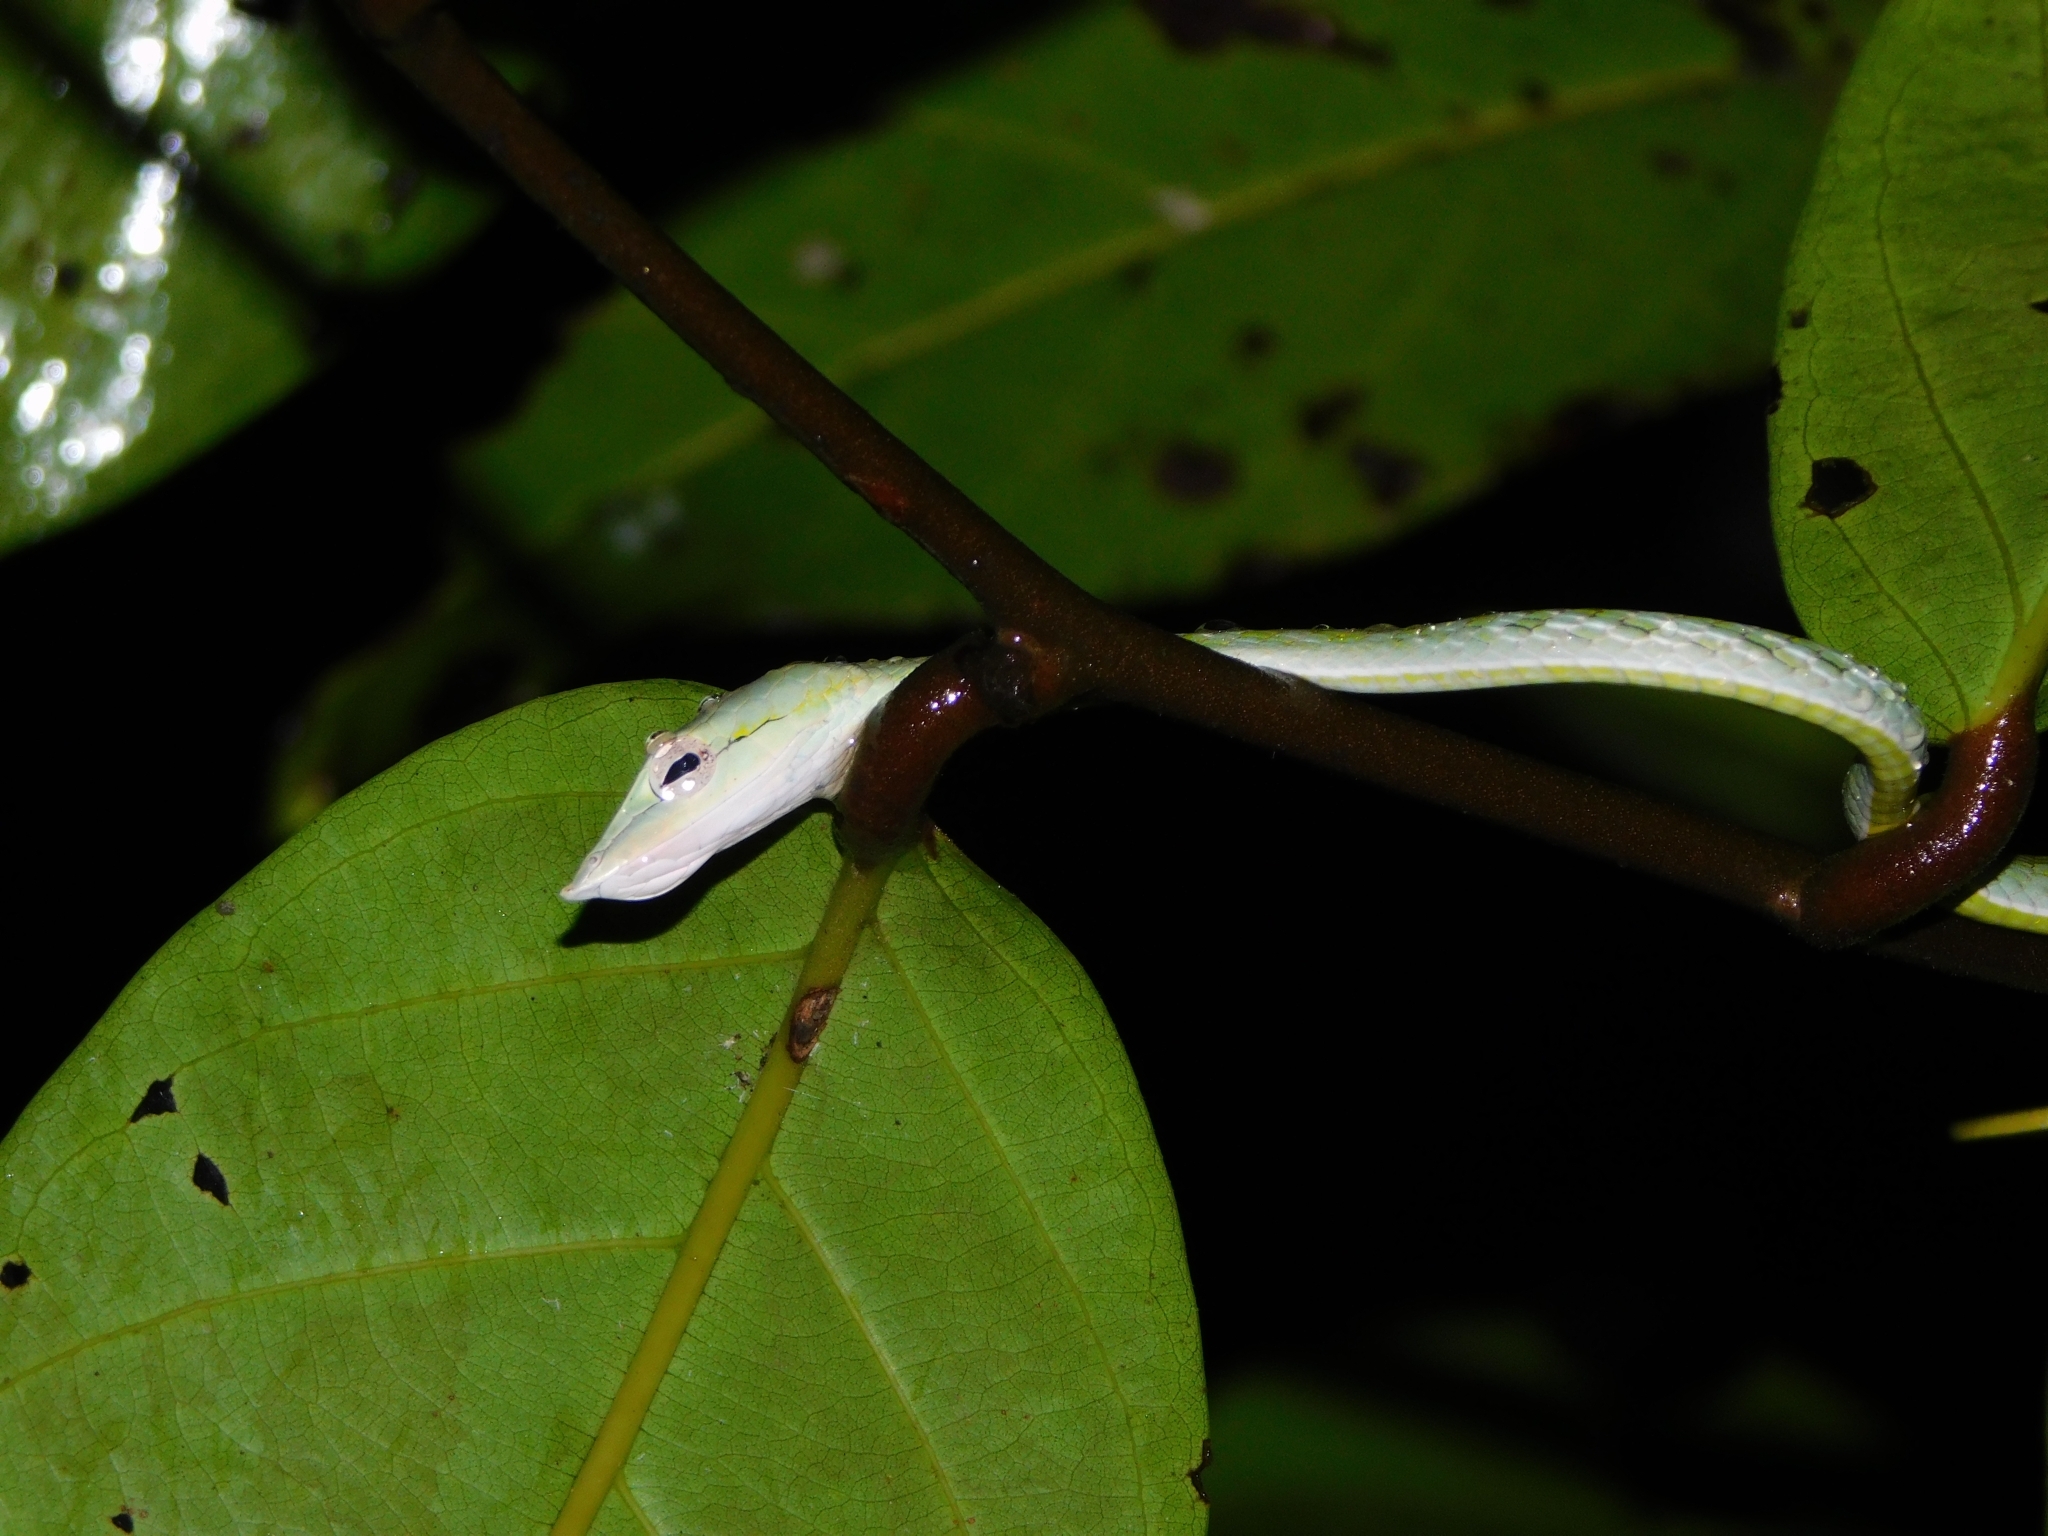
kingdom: Animalia
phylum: Chordata
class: Squamata
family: Colubridae
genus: Ahaetulla
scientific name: Ahaetulla farnsworthi
